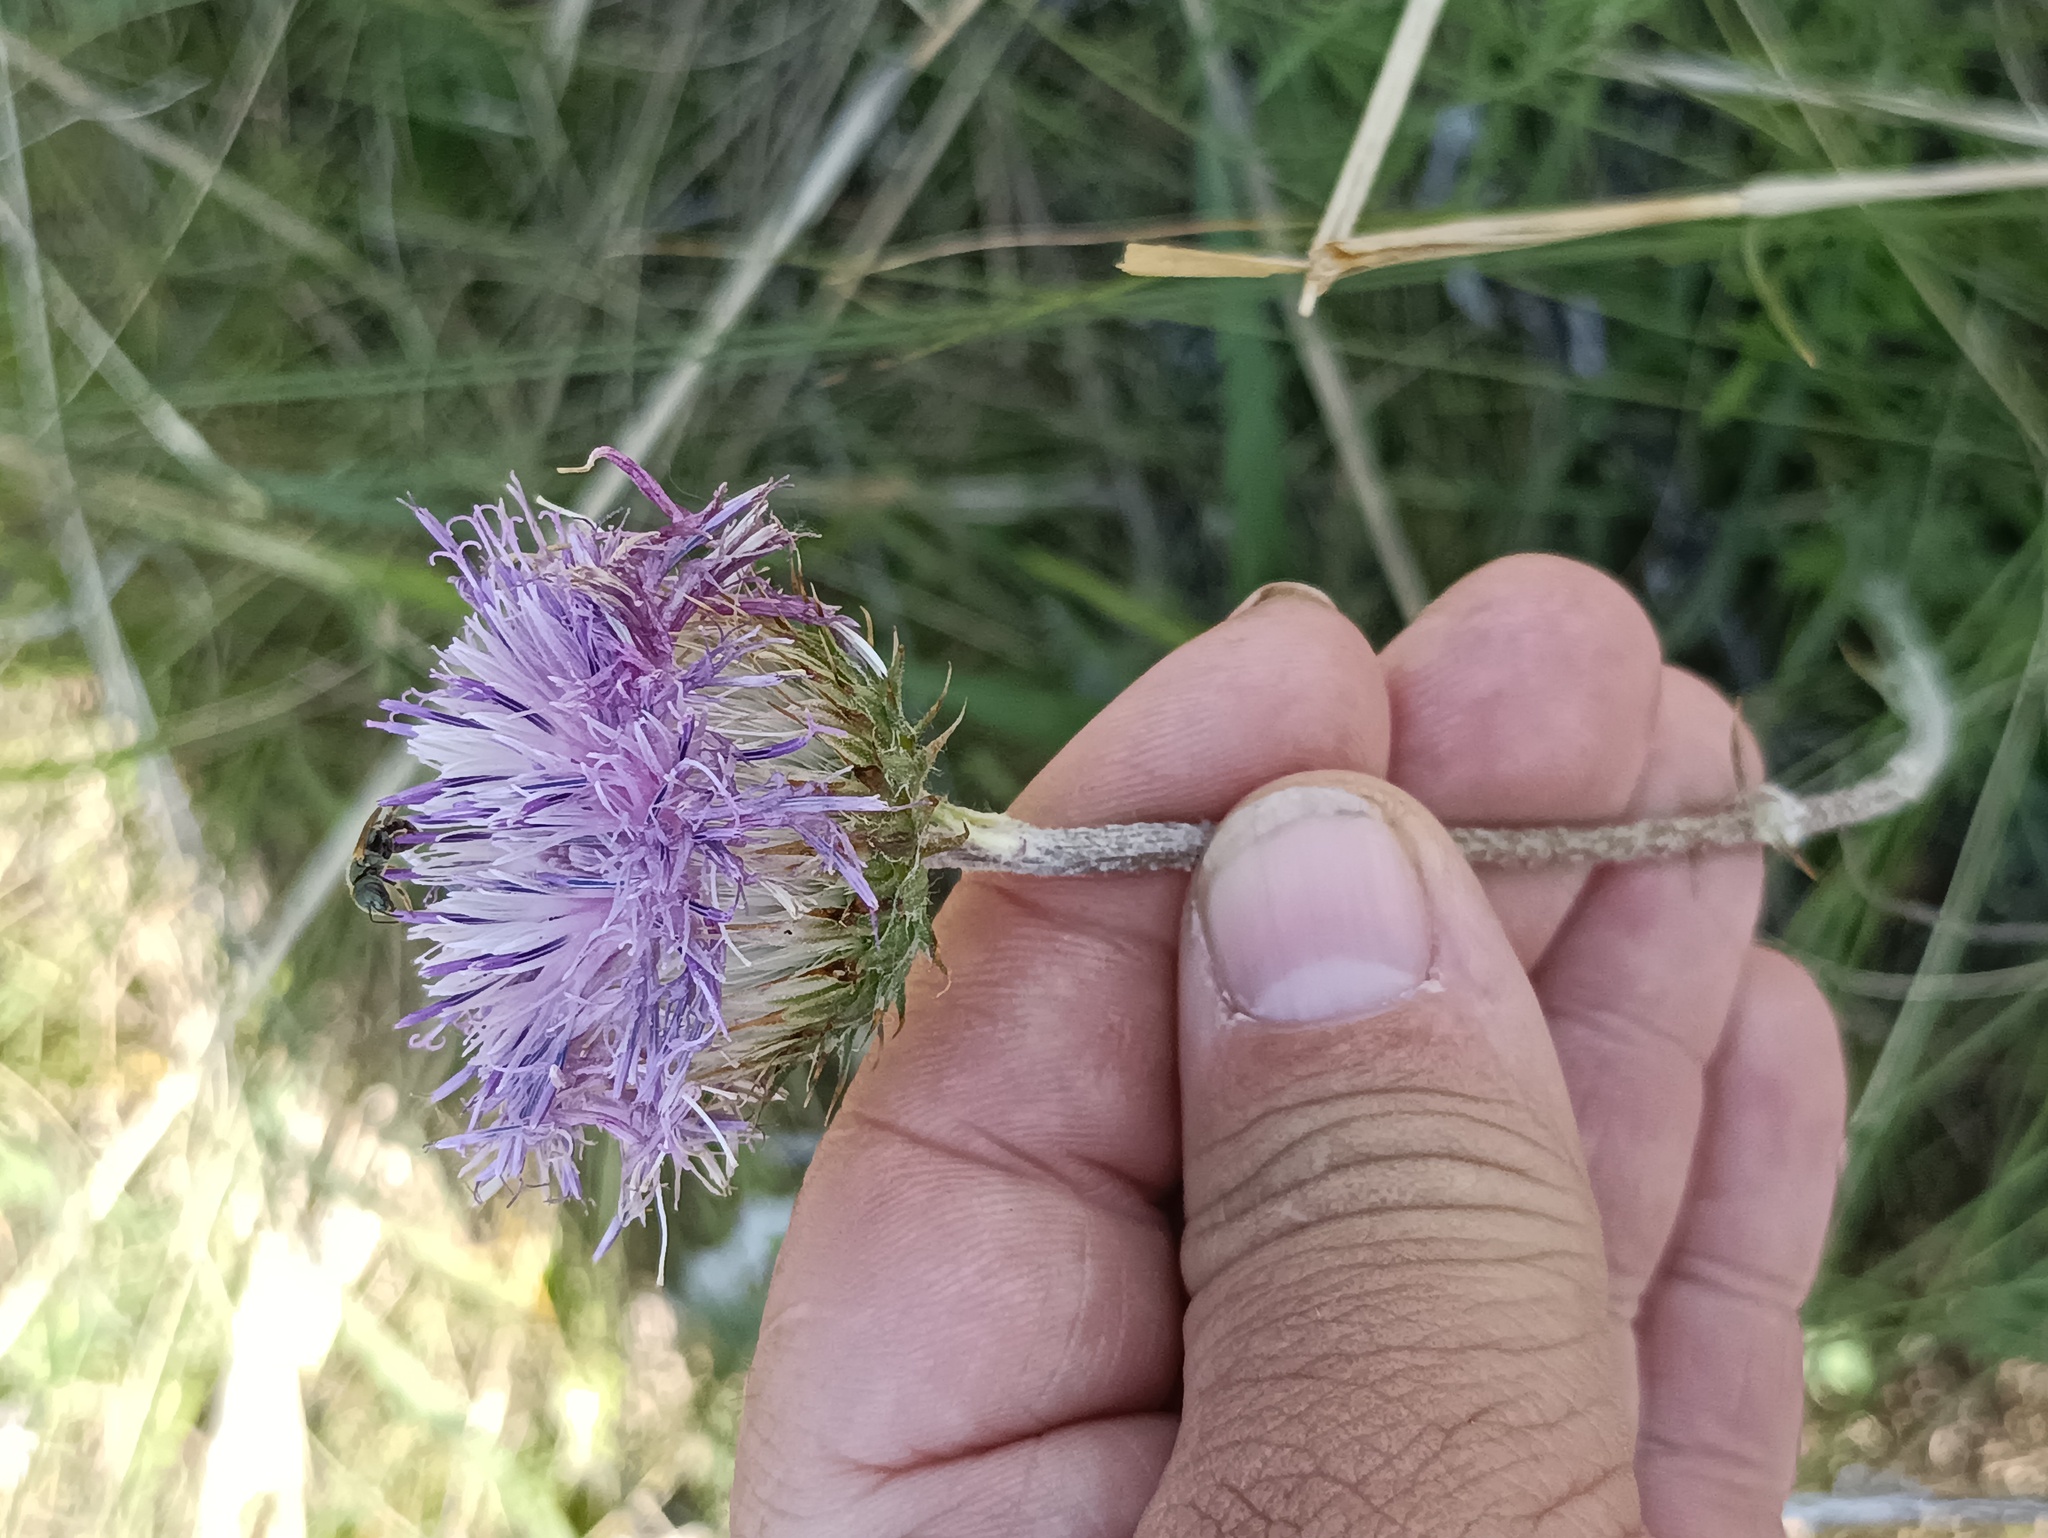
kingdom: Plantae
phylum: Tracheophyta
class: Magnoliopsida
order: Asterales
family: Asteraceae
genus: Jurinea
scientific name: Jurinea ledebourii
